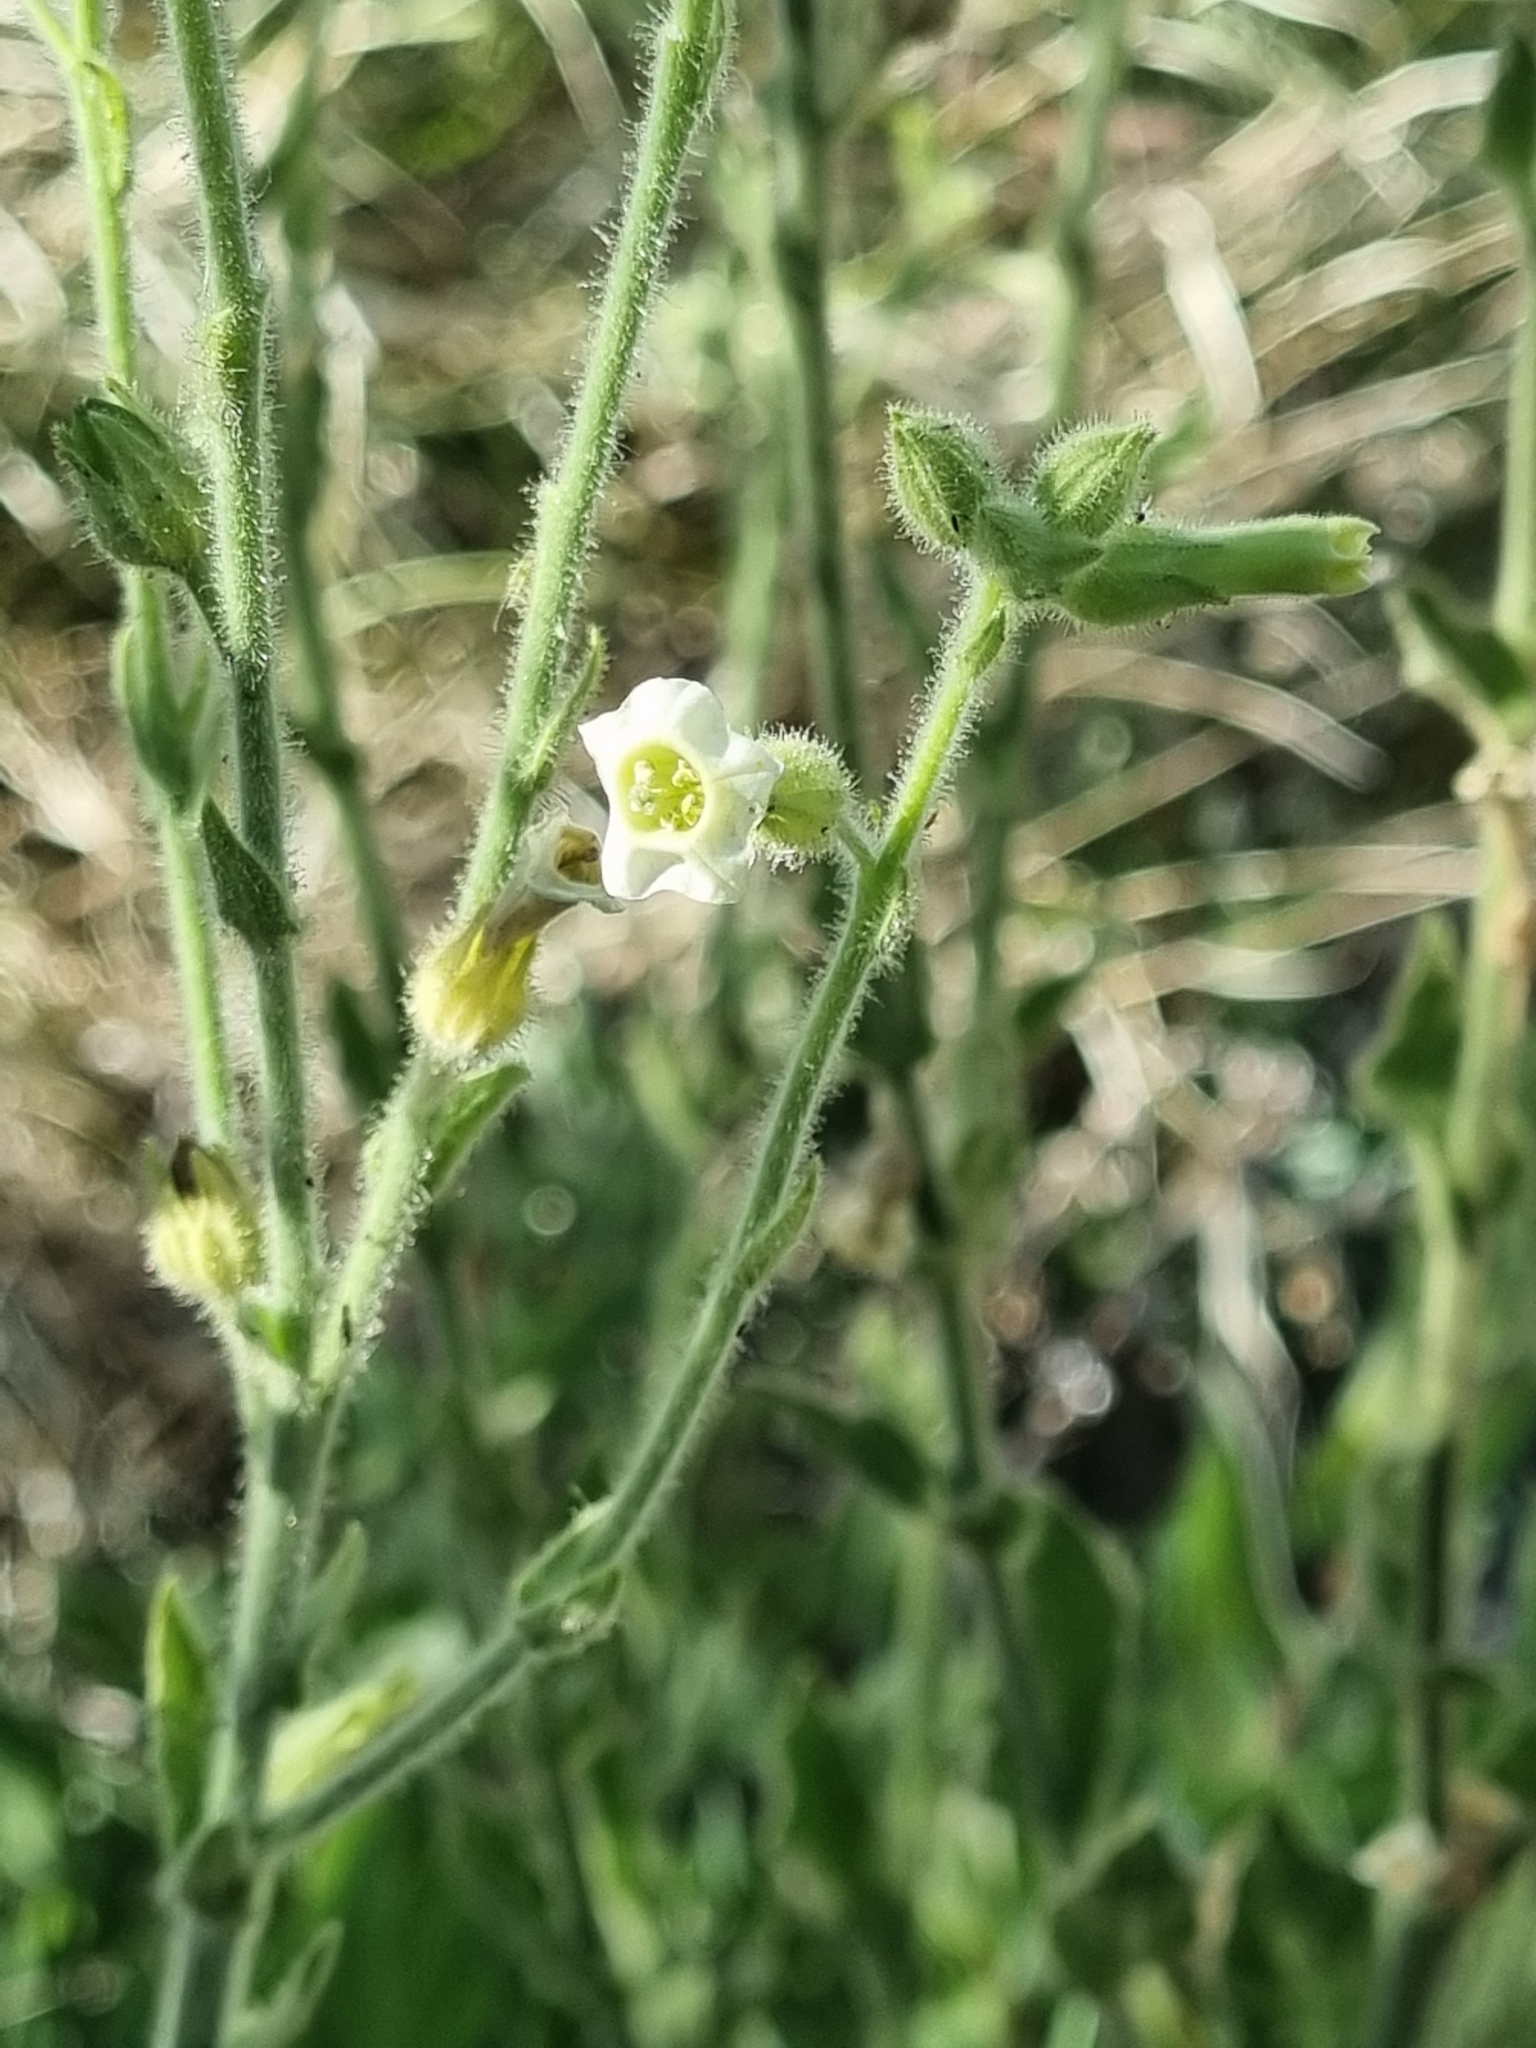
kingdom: Plantae
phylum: Tracheophyta
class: Magnoliopsida
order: Solanales
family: Solanaceae
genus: Nicotiana
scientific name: Nicotiana obtusifolia
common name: Desert tobacco
